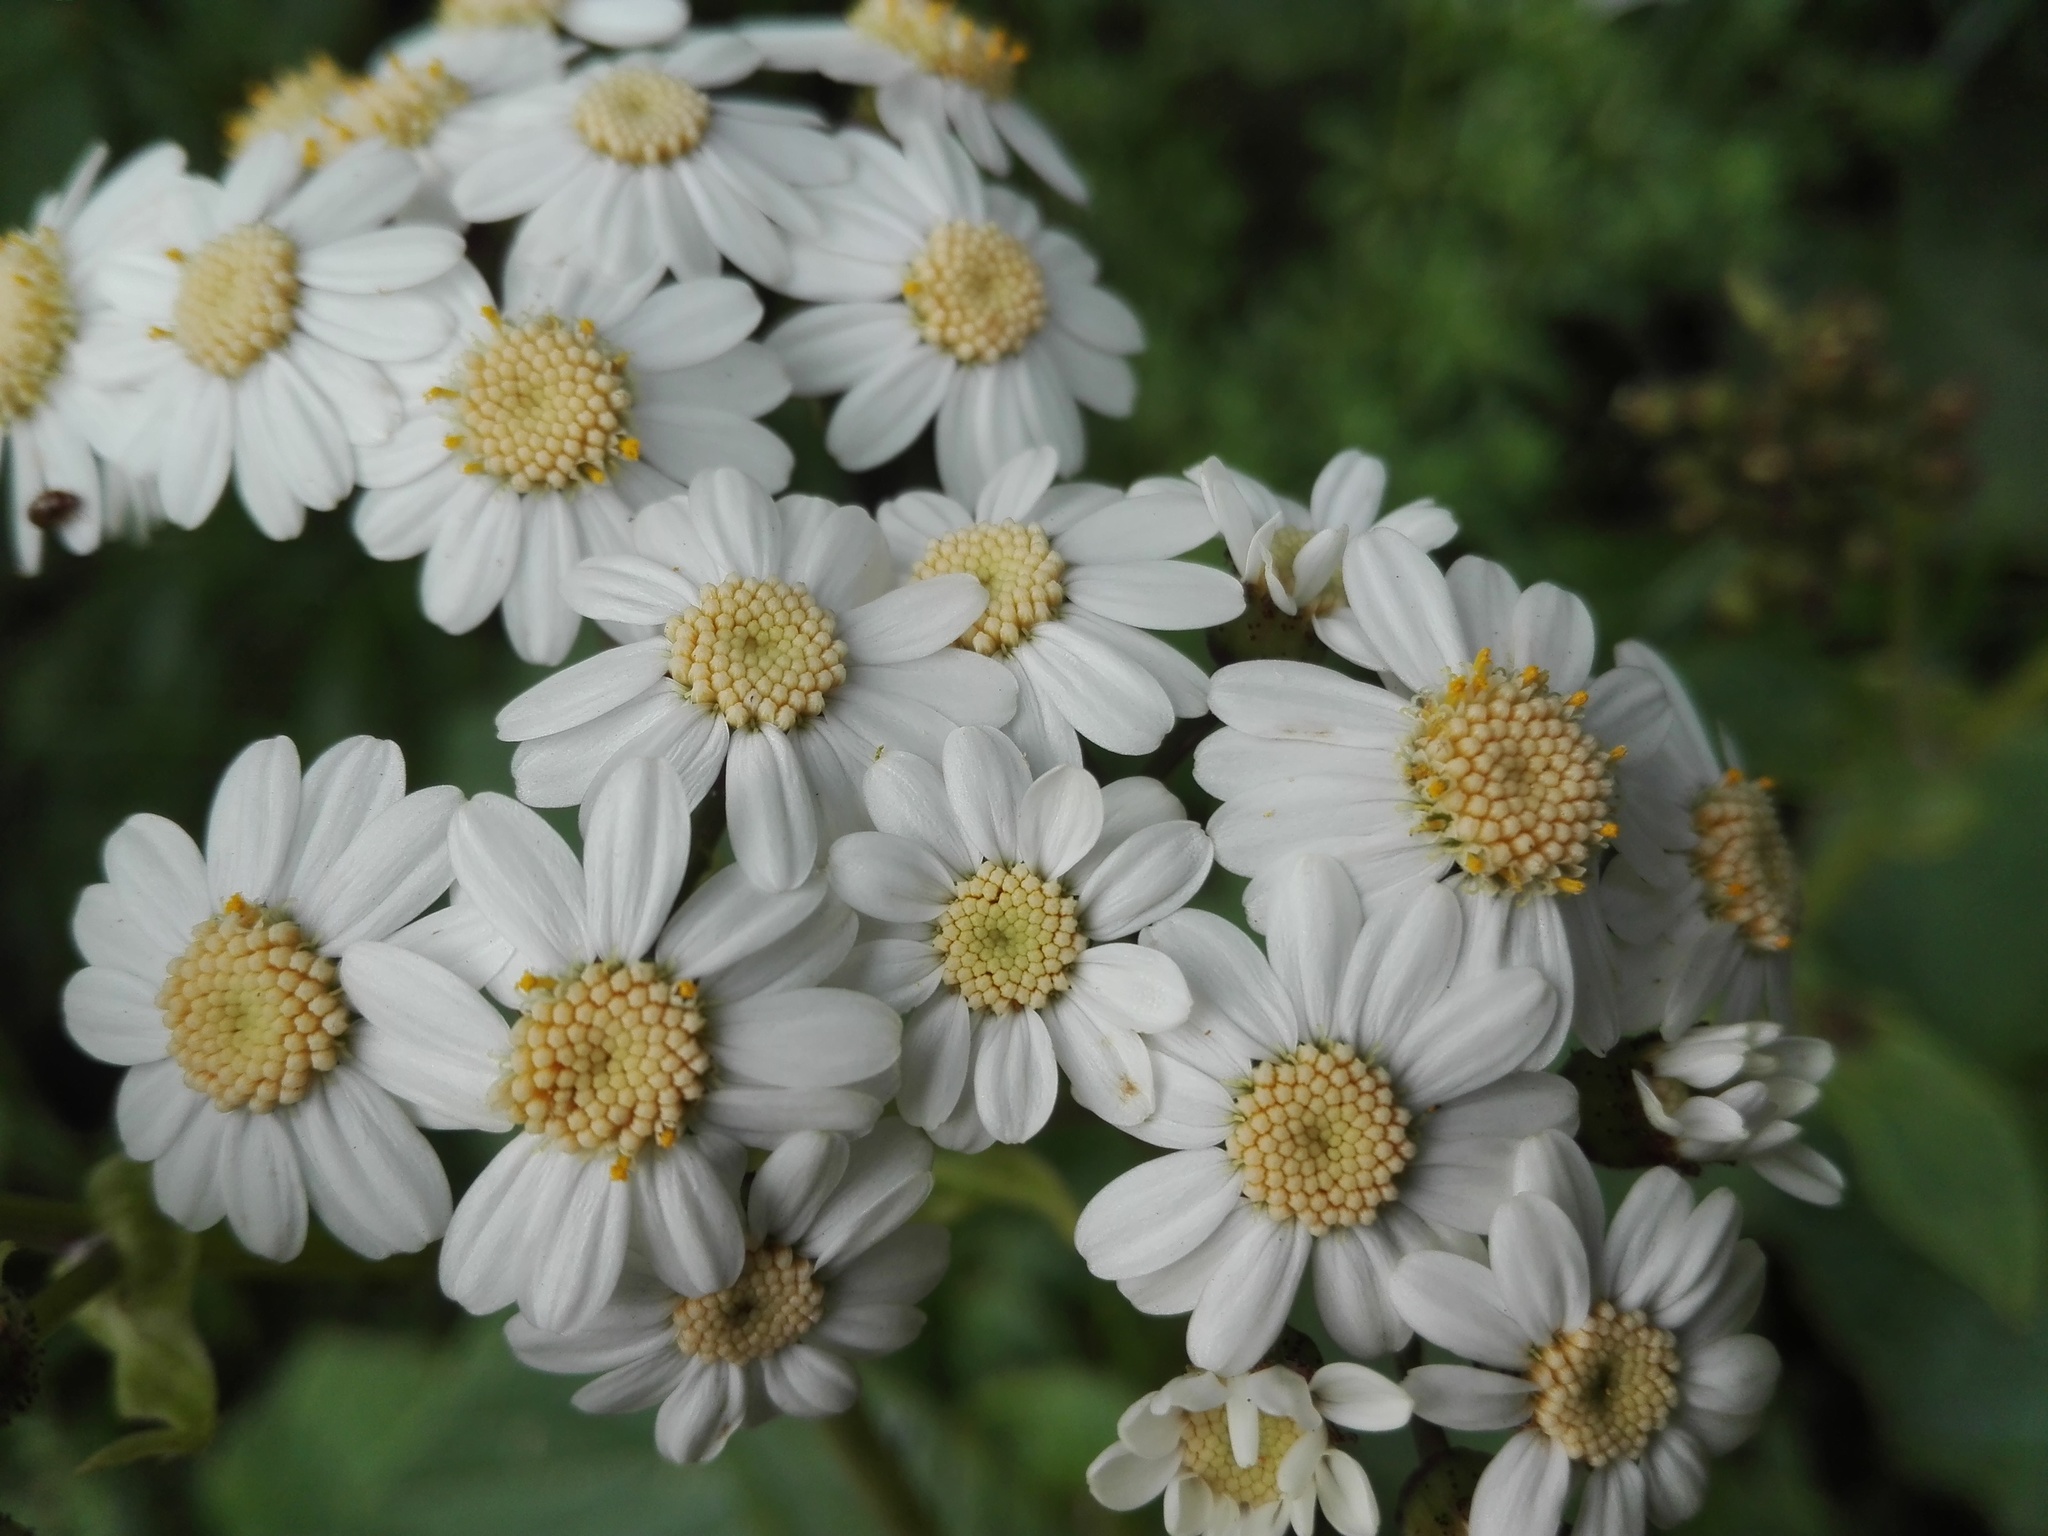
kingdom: Plantae
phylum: Tracheophyta
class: Magnoliopsida
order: Asterales
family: Asteraceae
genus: Pericallis
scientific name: Pericallis murrayi
